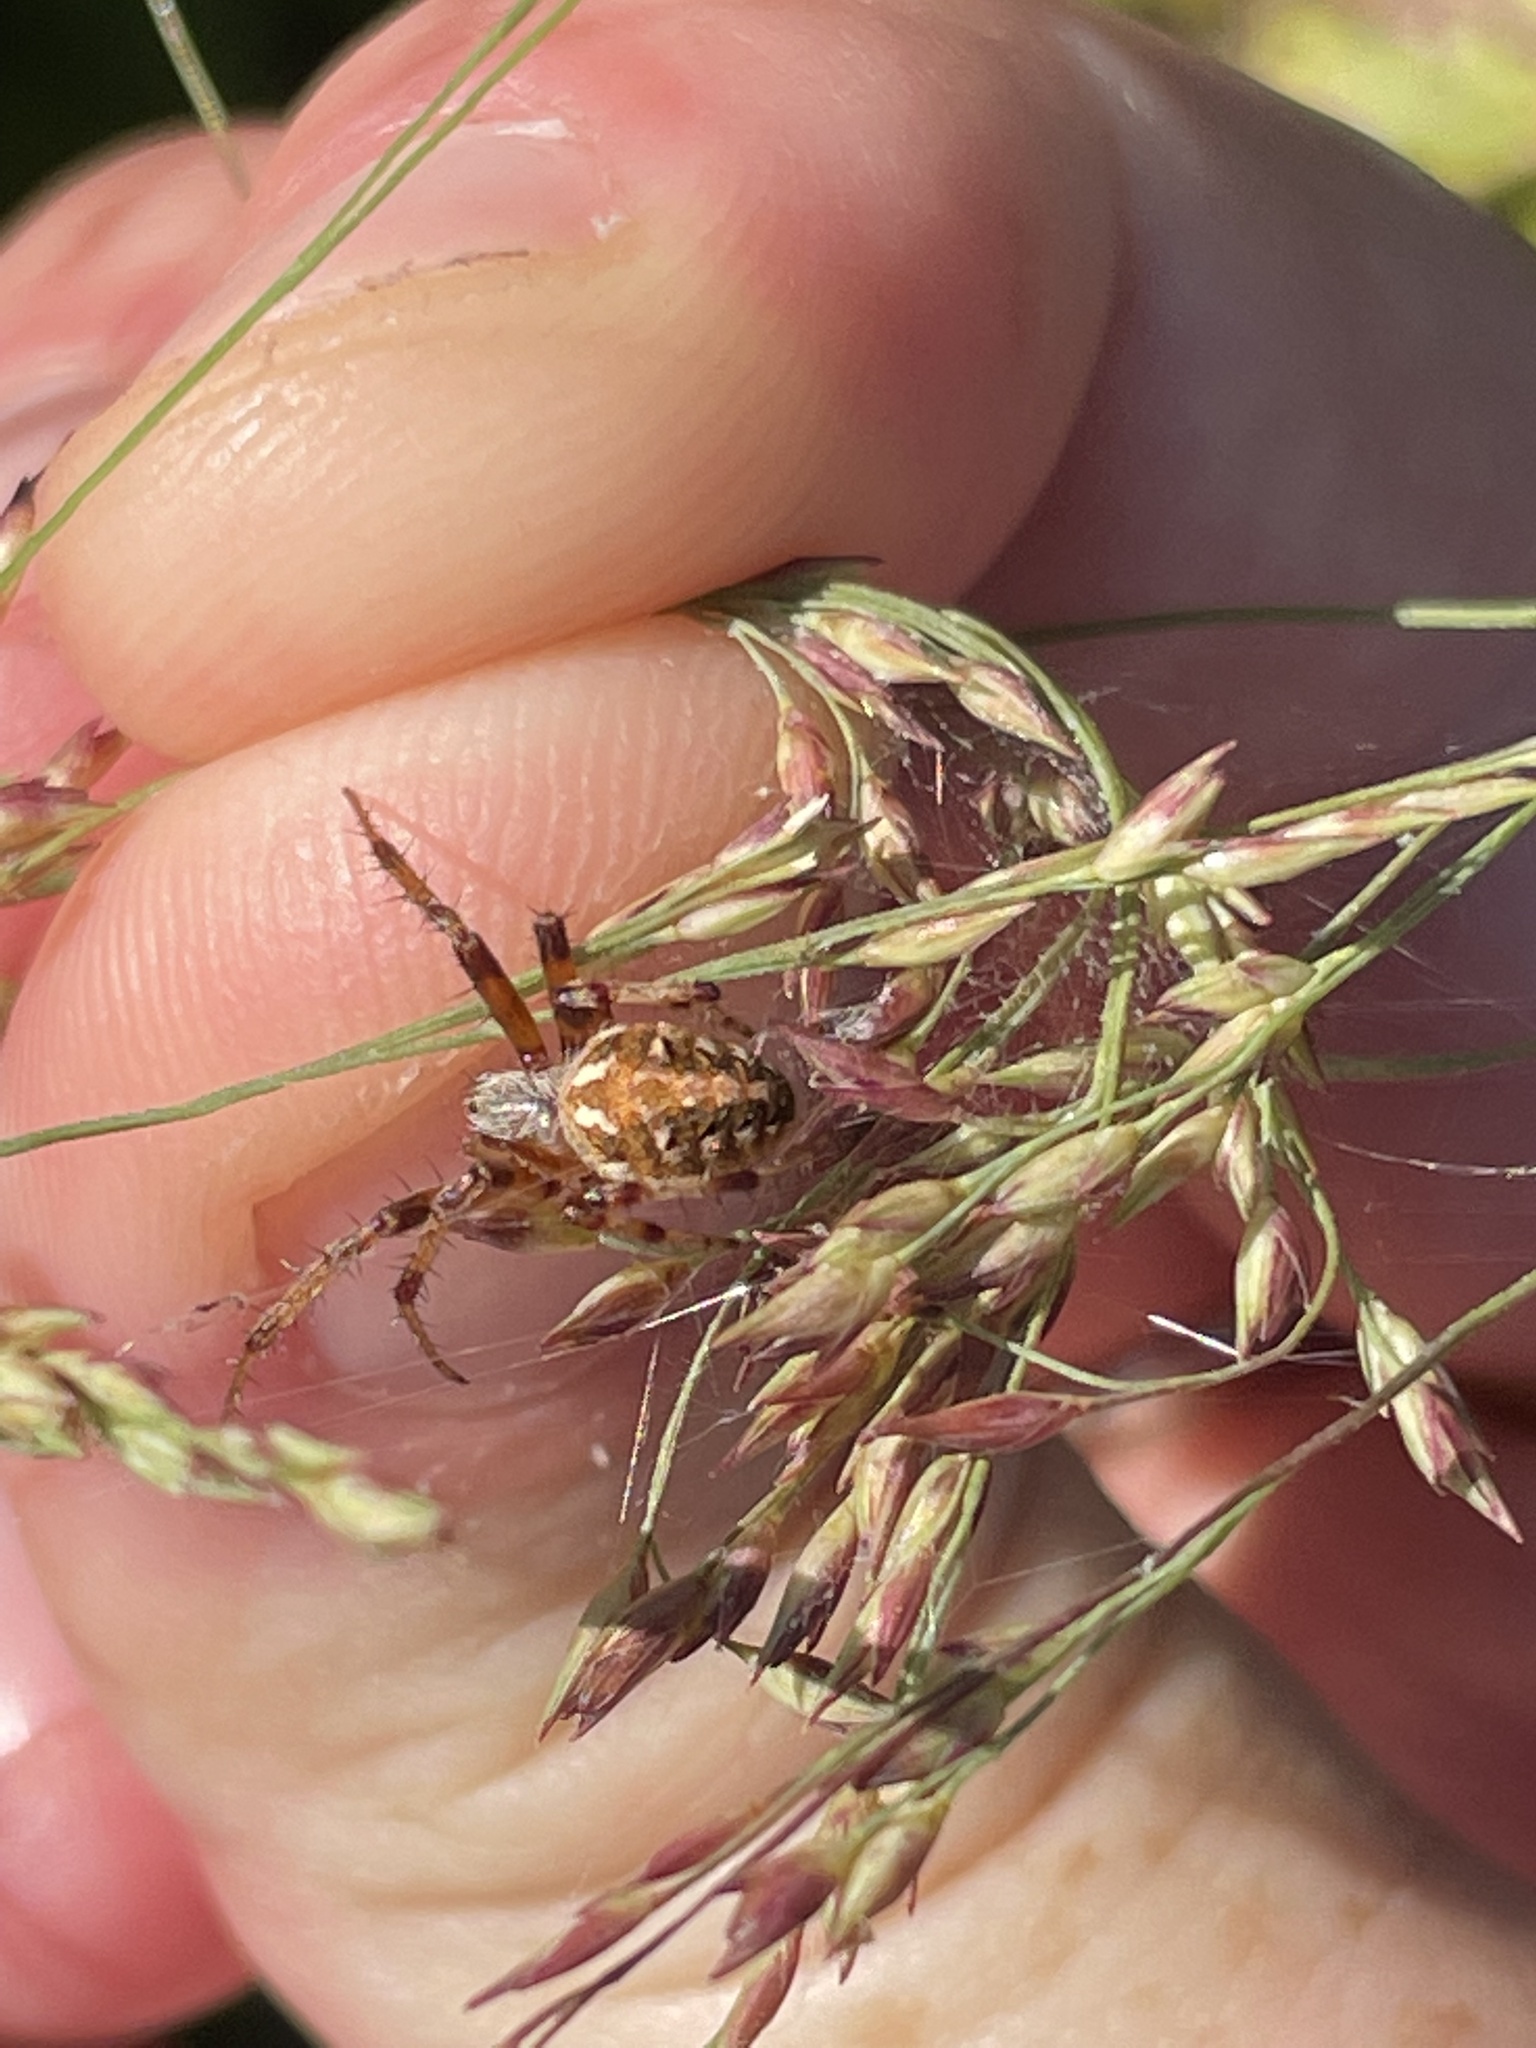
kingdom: Animalia
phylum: Arthropoda
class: Arachnida
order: Araneae
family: Araneidae
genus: Neoscona
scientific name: Neoscona arabesca
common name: Orb weavers
